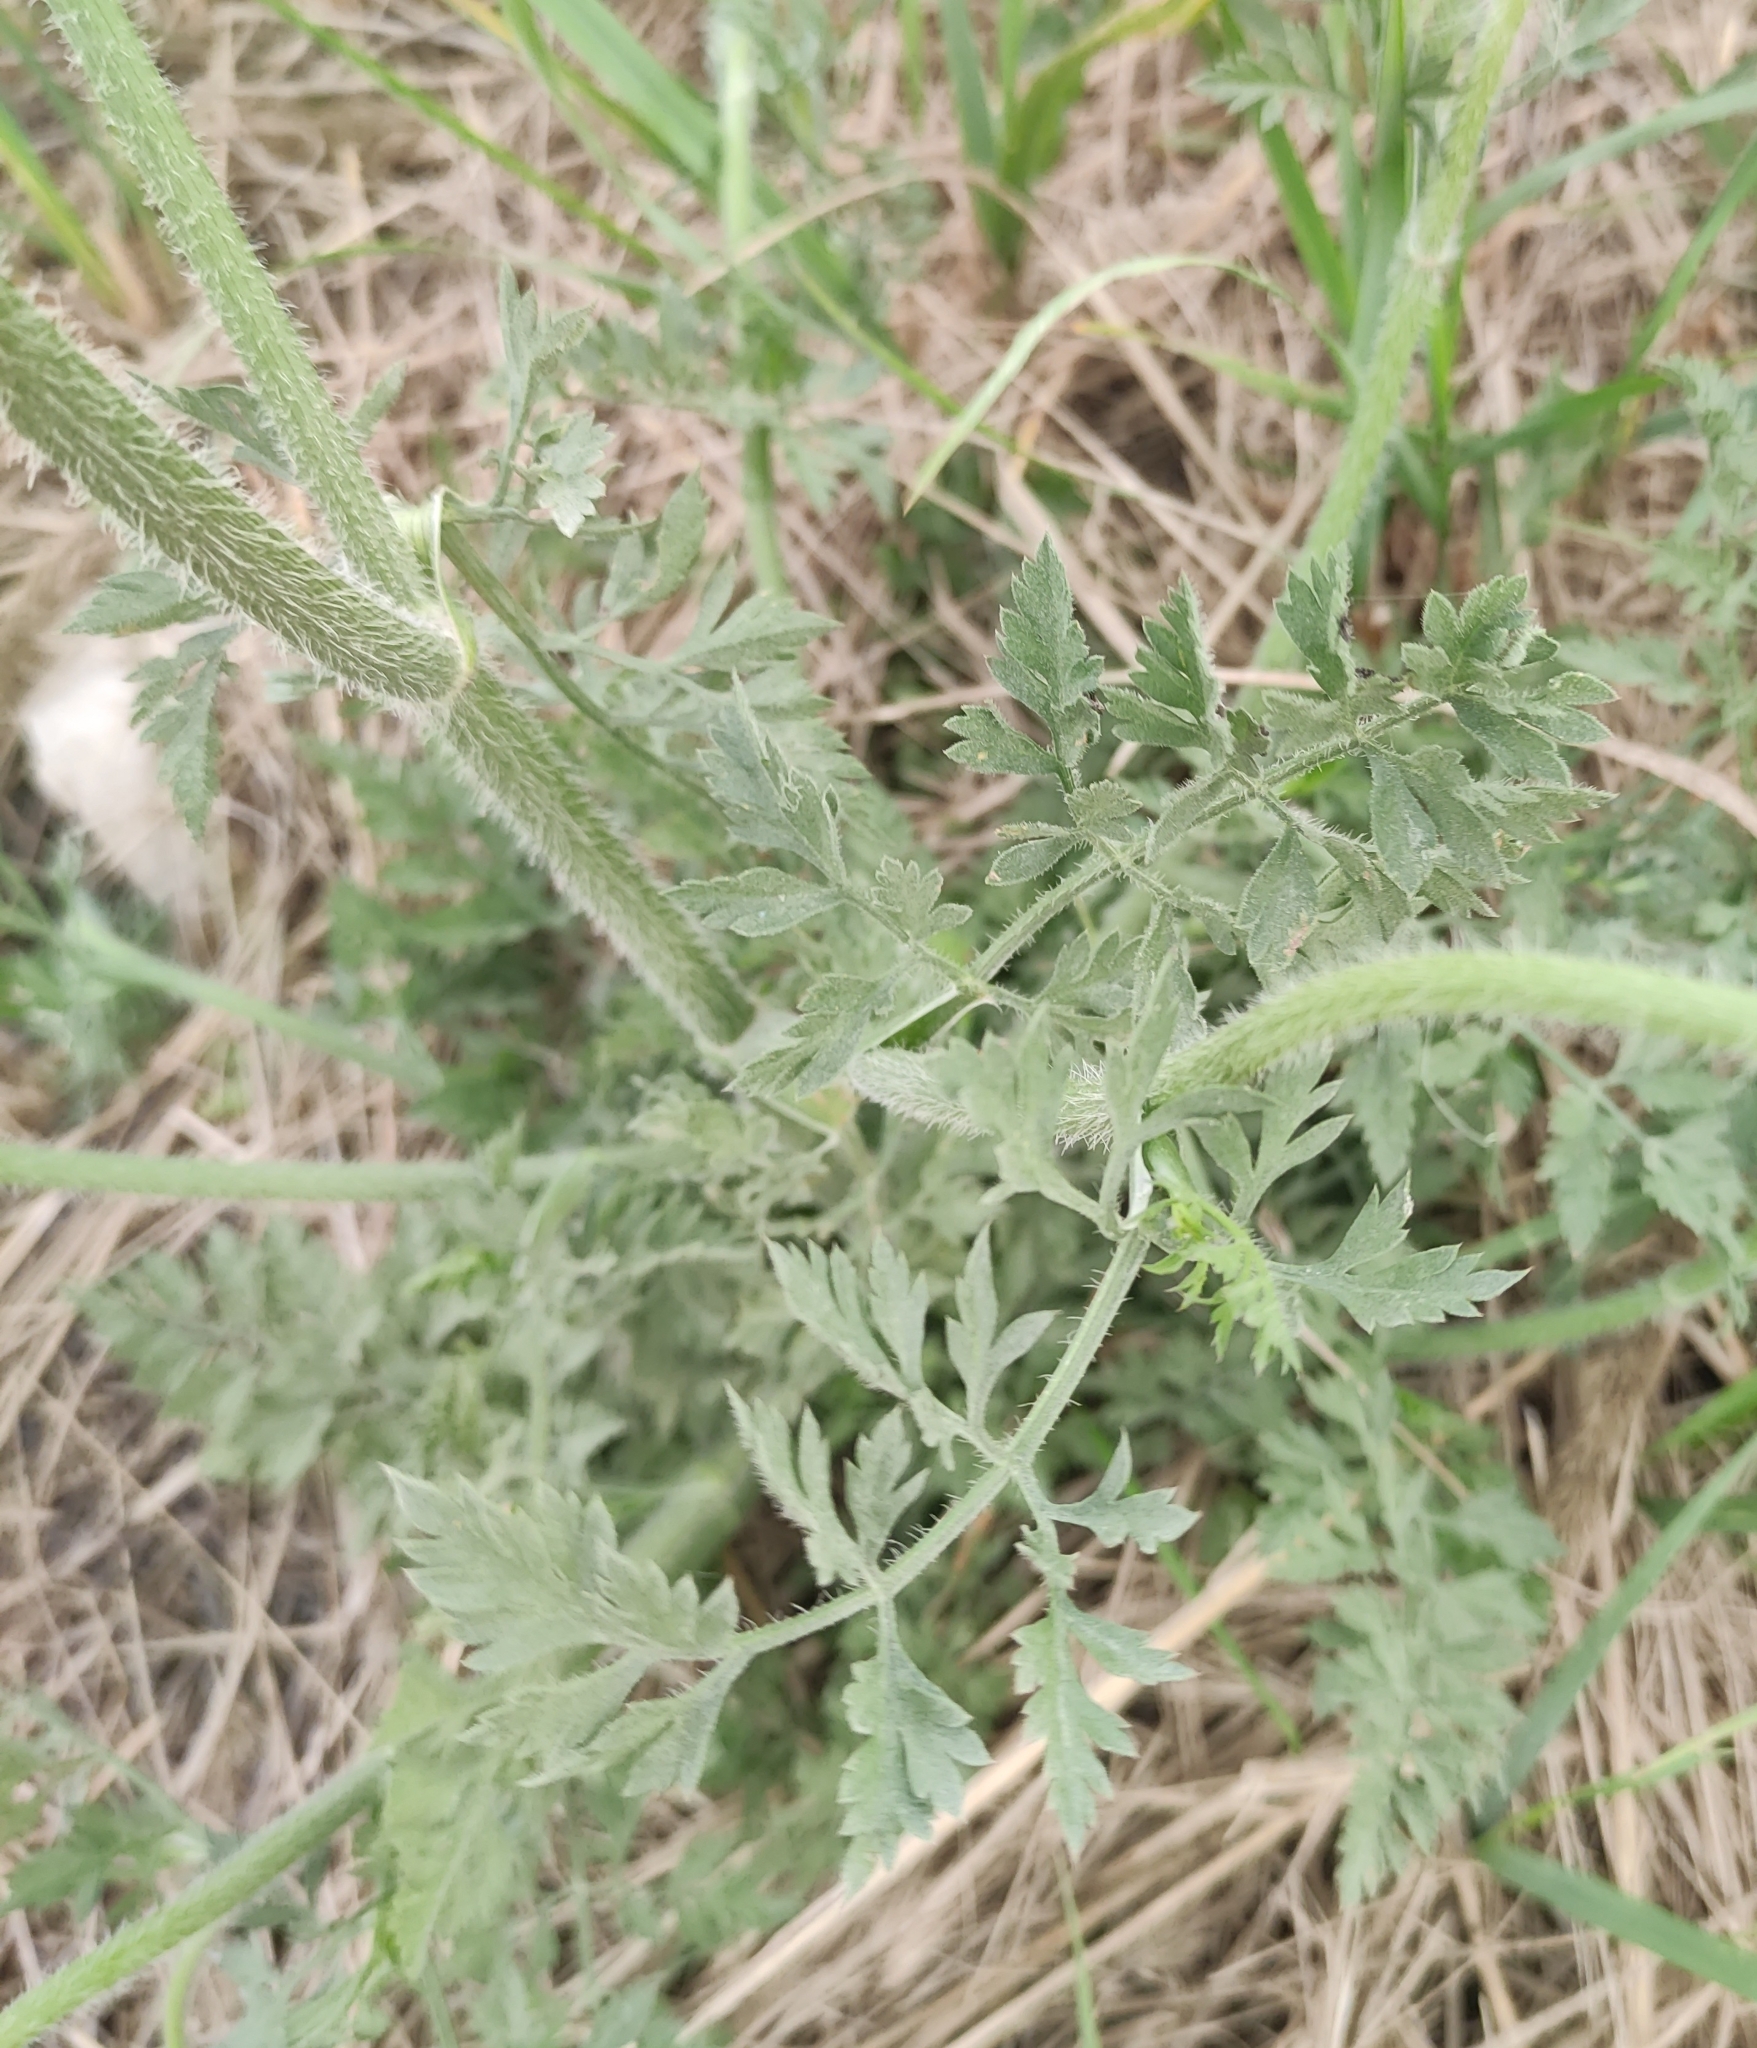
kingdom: Plantae
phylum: Tracheophyta
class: Magnoliopsida
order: Apiales
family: Apiaceae
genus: Daucus
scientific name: Daucus carota
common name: Wild carrot
